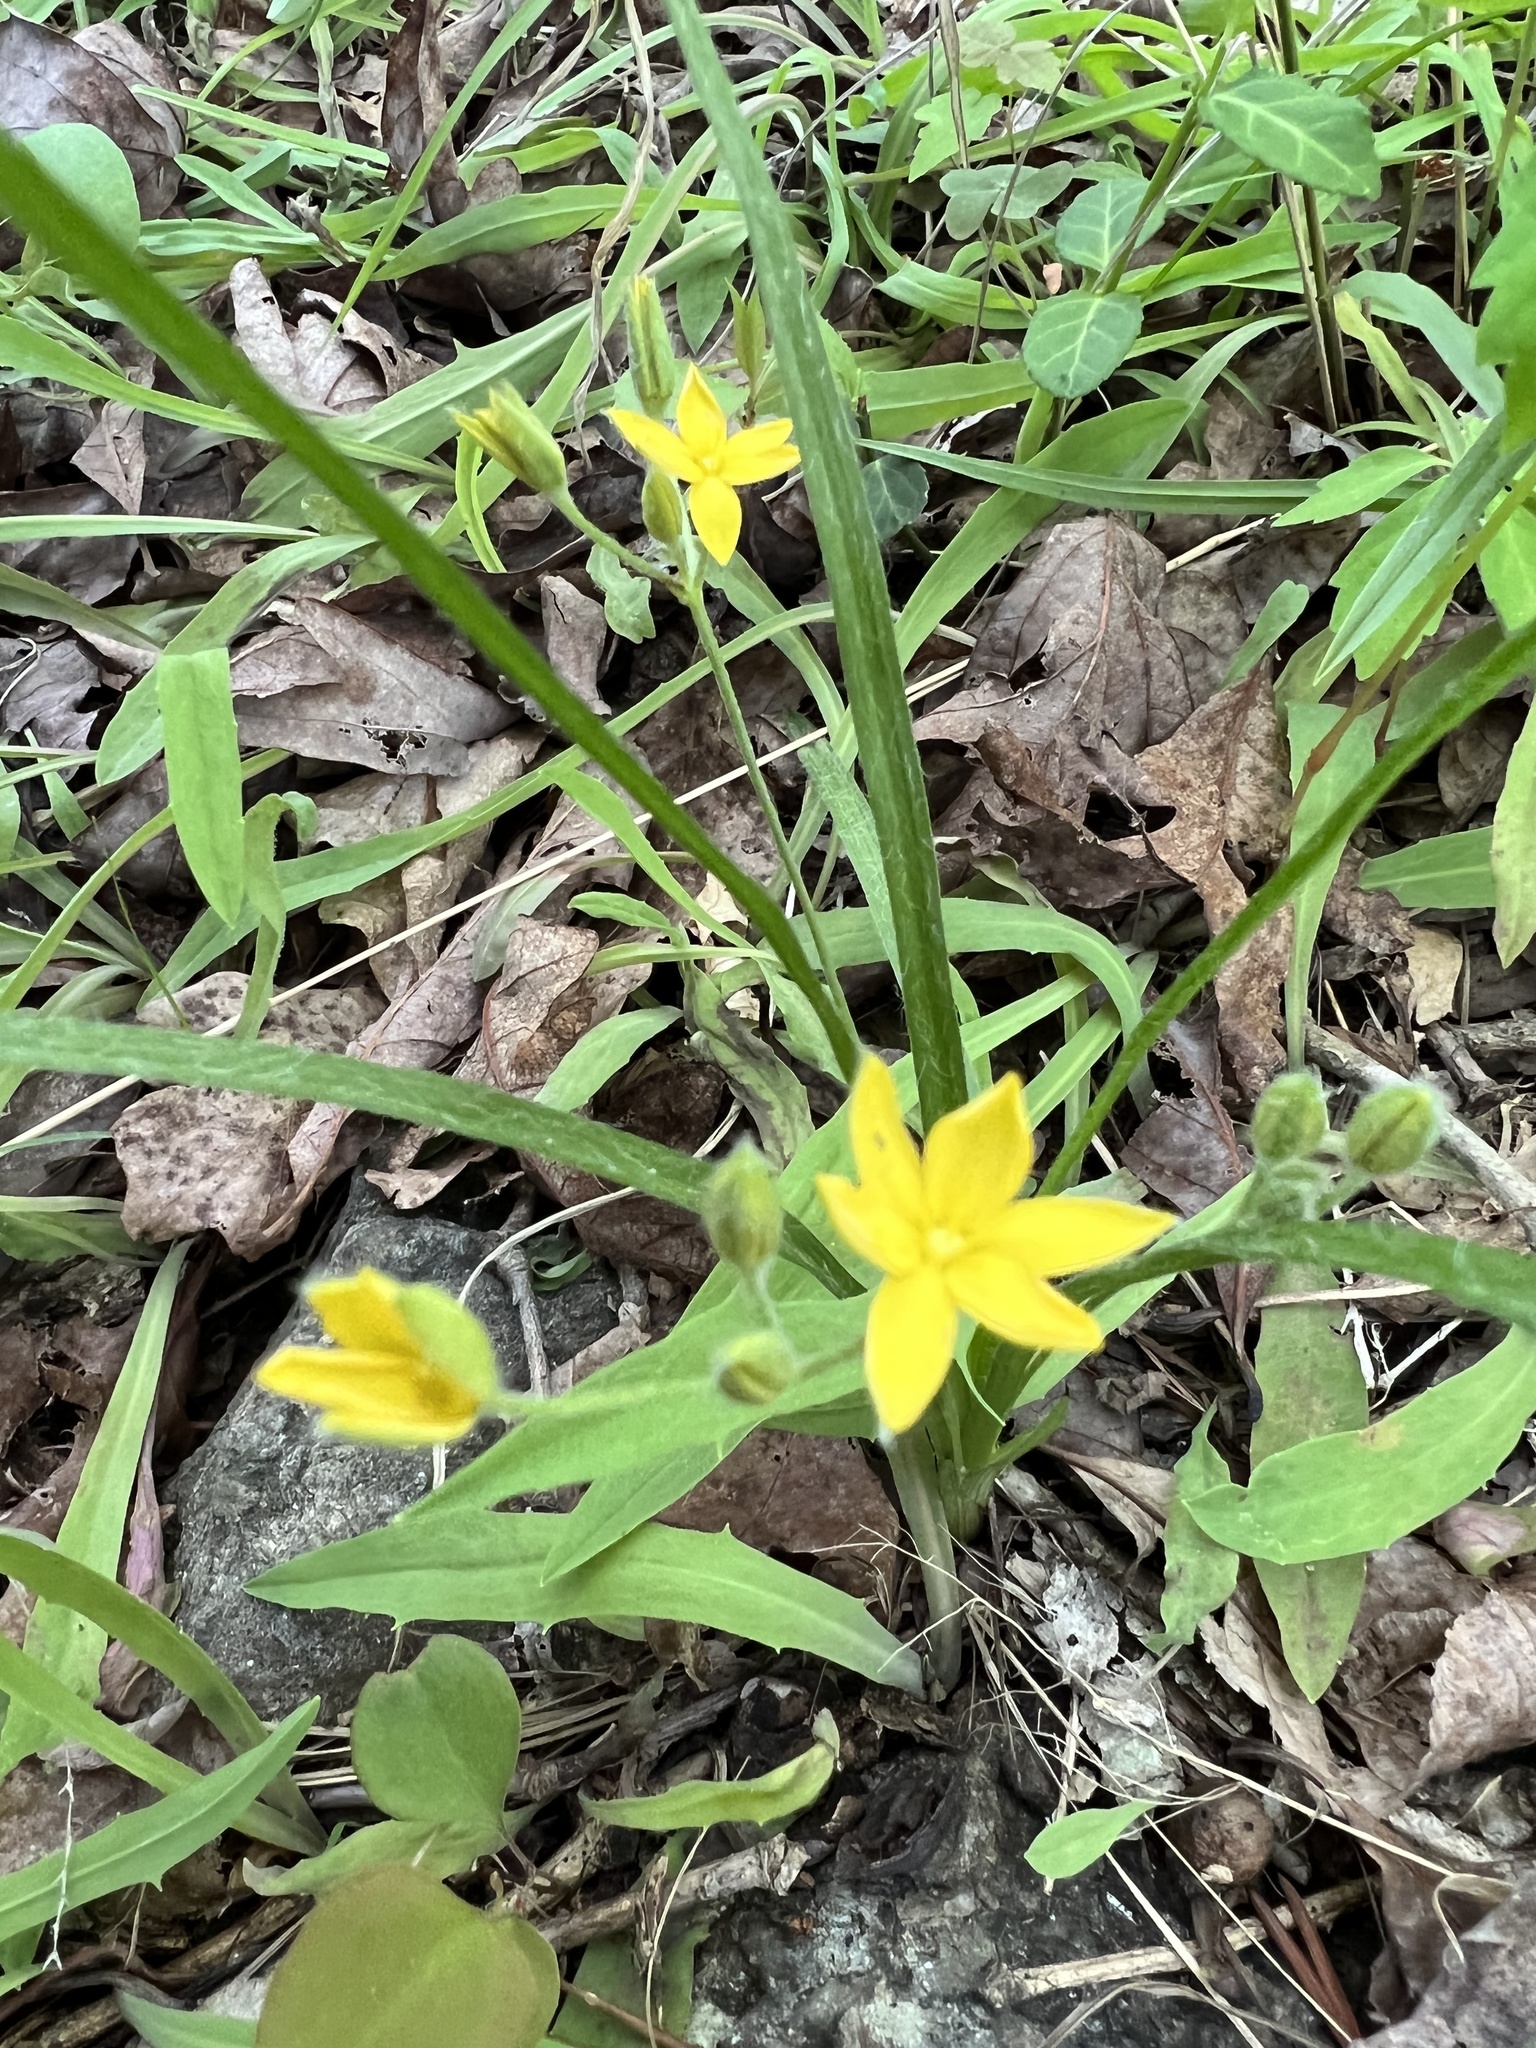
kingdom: Plantae
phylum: Tracheophyta
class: Liliopsida
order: Asparagales
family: Hypoxidaceae
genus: Hypoxis
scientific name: Hypoxis hirsuta
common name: Common goldstar
